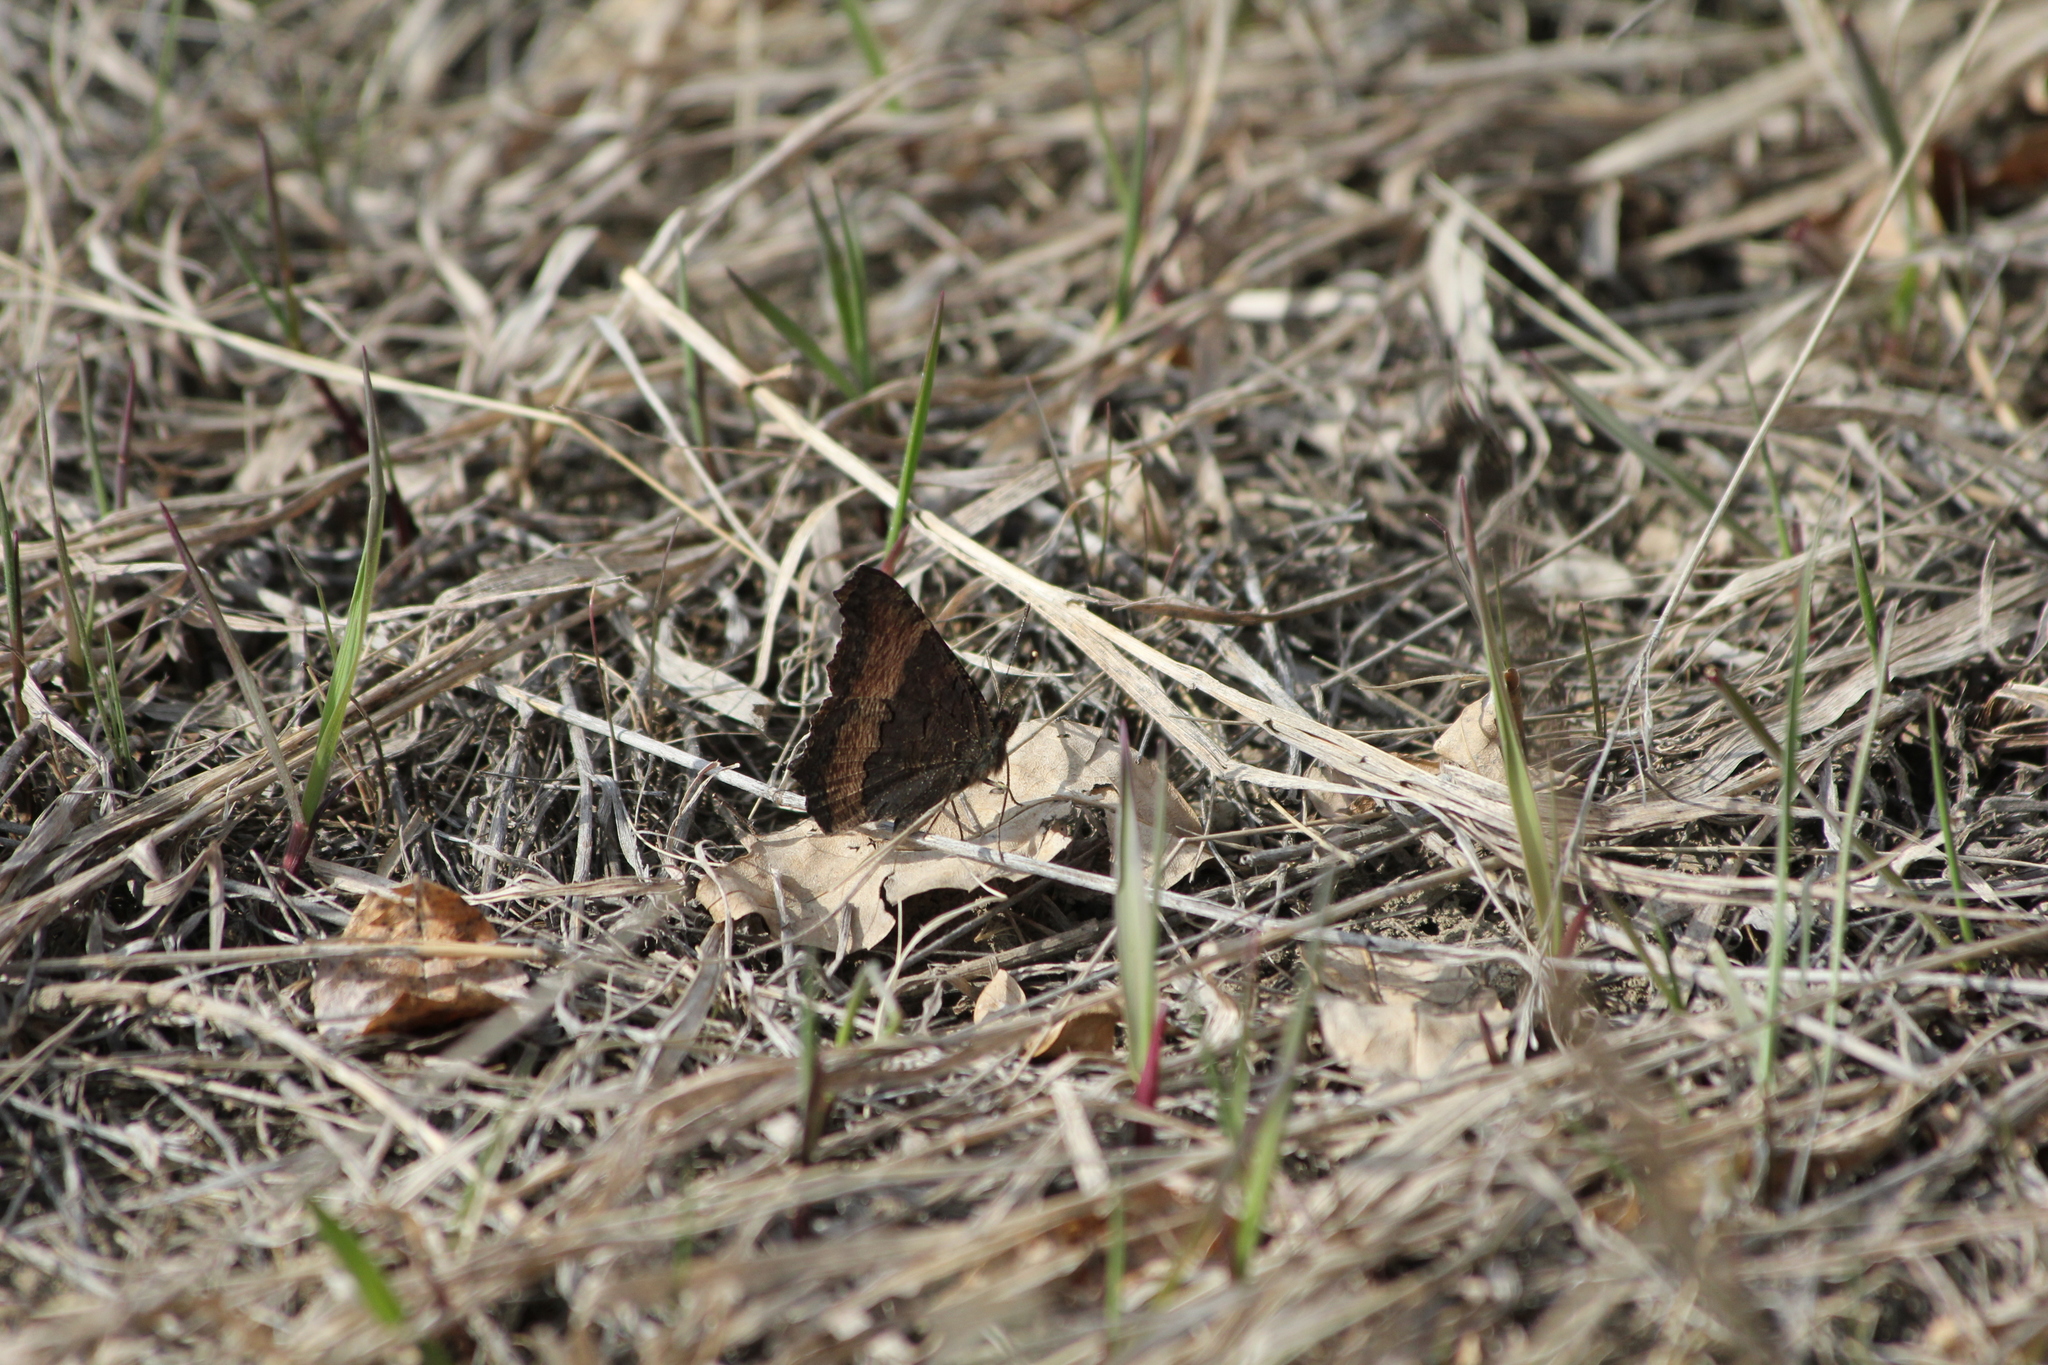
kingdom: Animalia
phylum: Arthropoda
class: Insecta
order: Lepidoptera
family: Nymphalidae
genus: Aglais
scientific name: Aglais milberti
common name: Milbert's tortoiseshell
